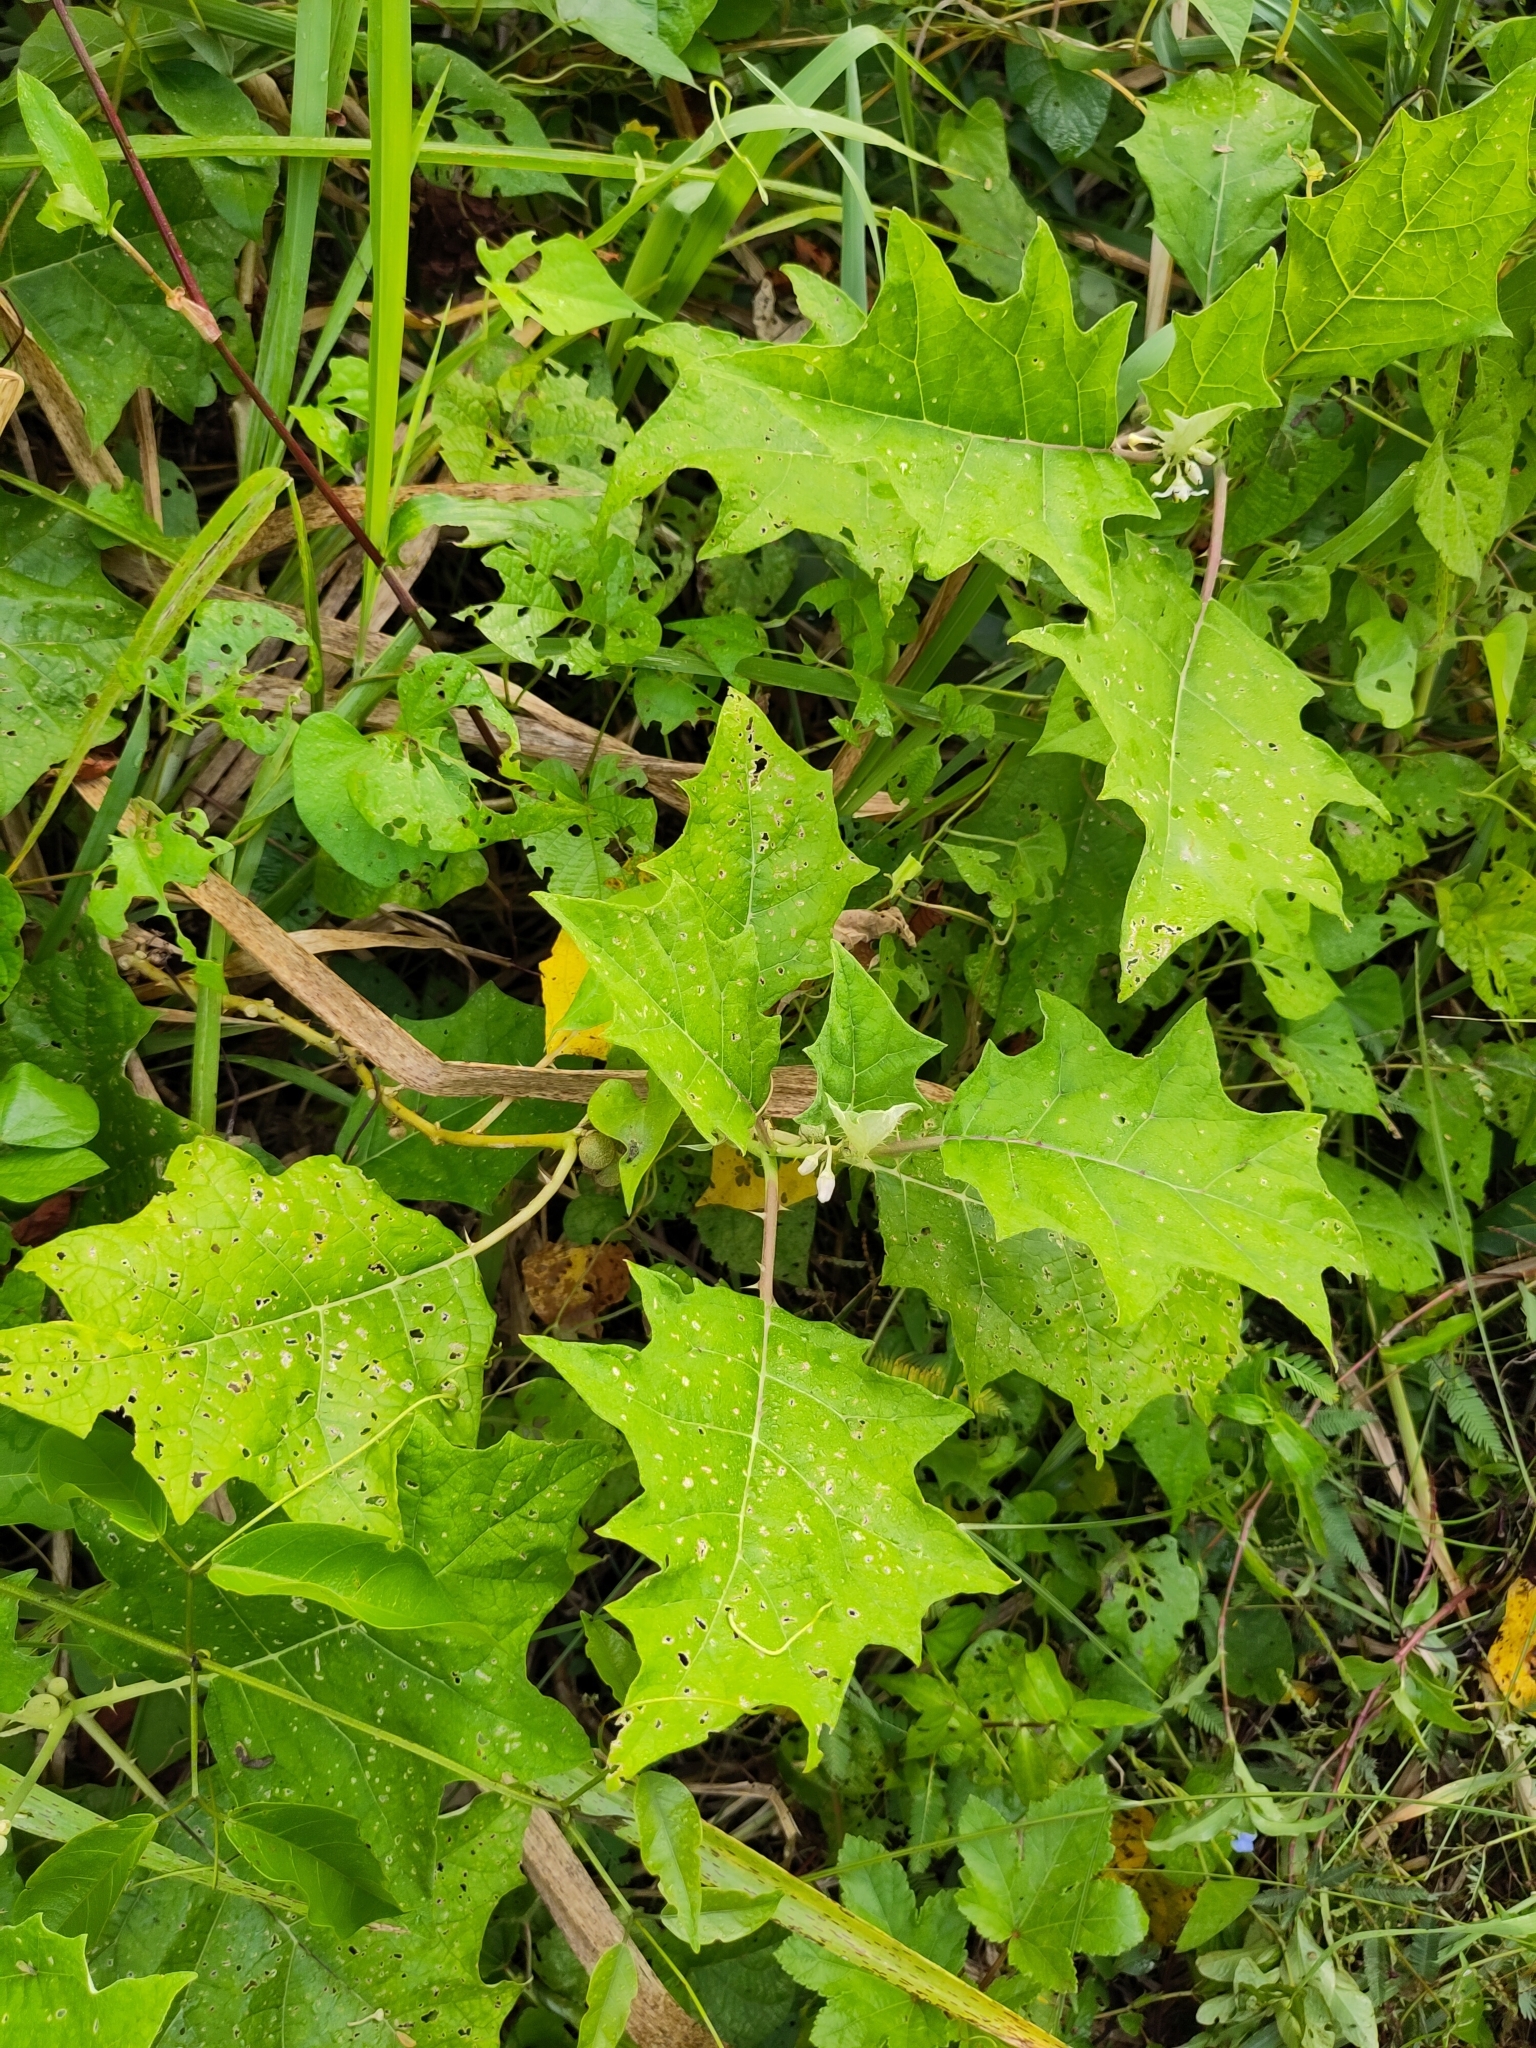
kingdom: Plantae
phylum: Tracheophyta
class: Magnoliopsida
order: Solanales
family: Solanaceae
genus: Solanum
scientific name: Solanum
